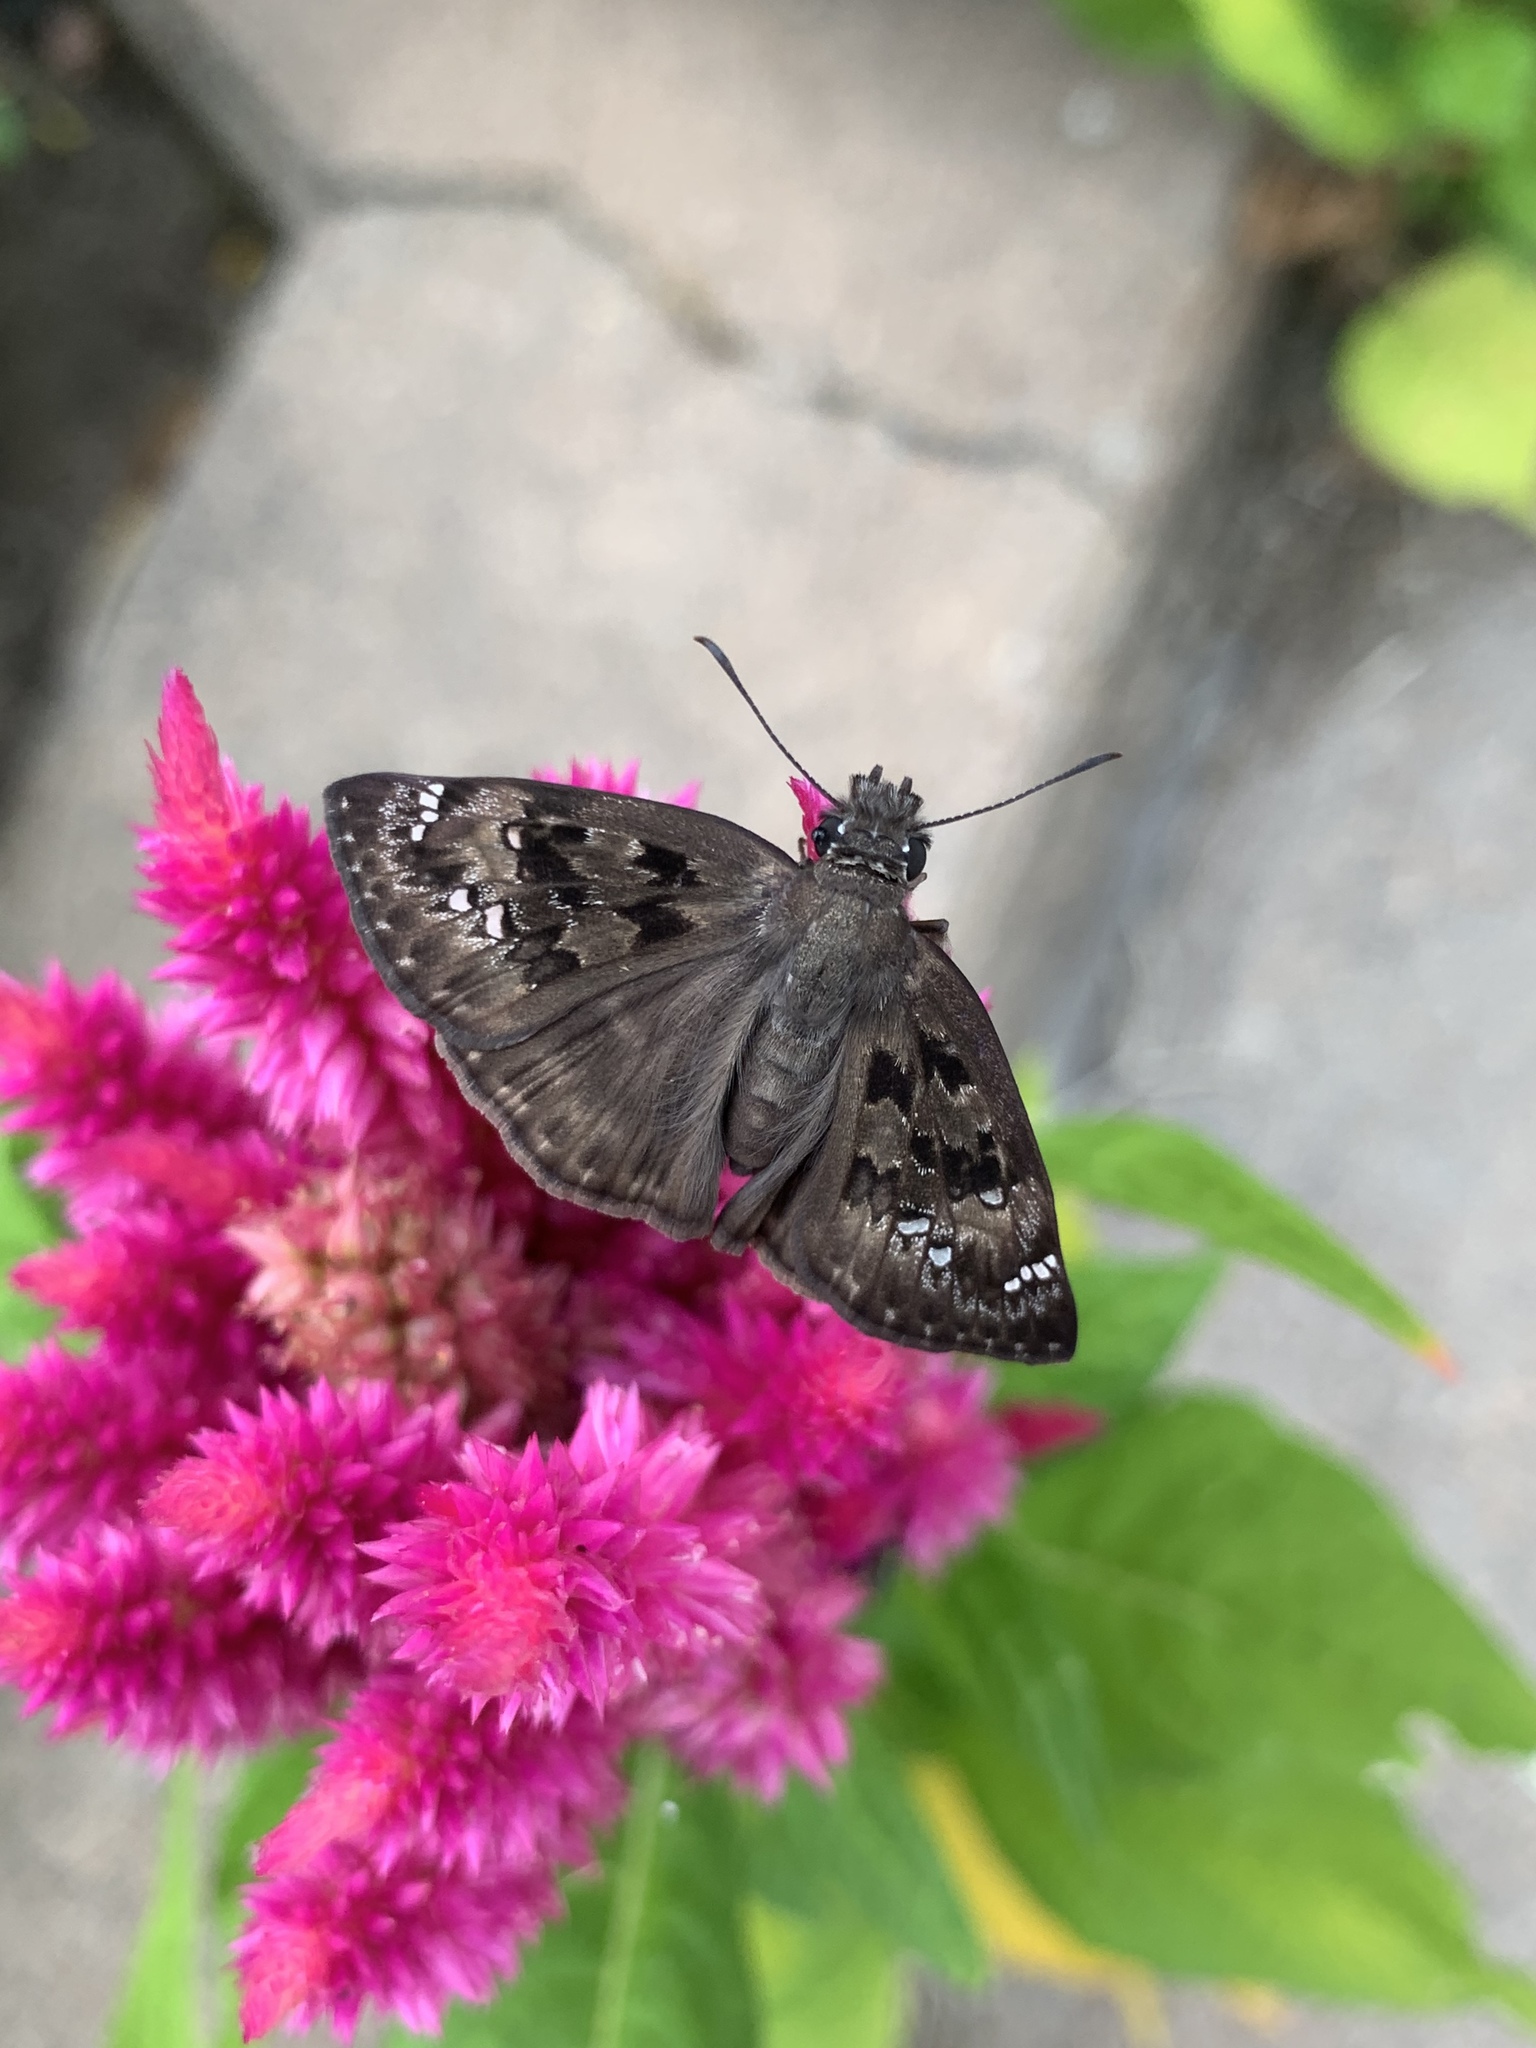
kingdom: Animalia
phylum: Arthropoda
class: Insecta
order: Lepidoptera
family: Hesperiidae
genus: Erynnis
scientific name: Erynnis horatius
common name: Horace's duskywing
